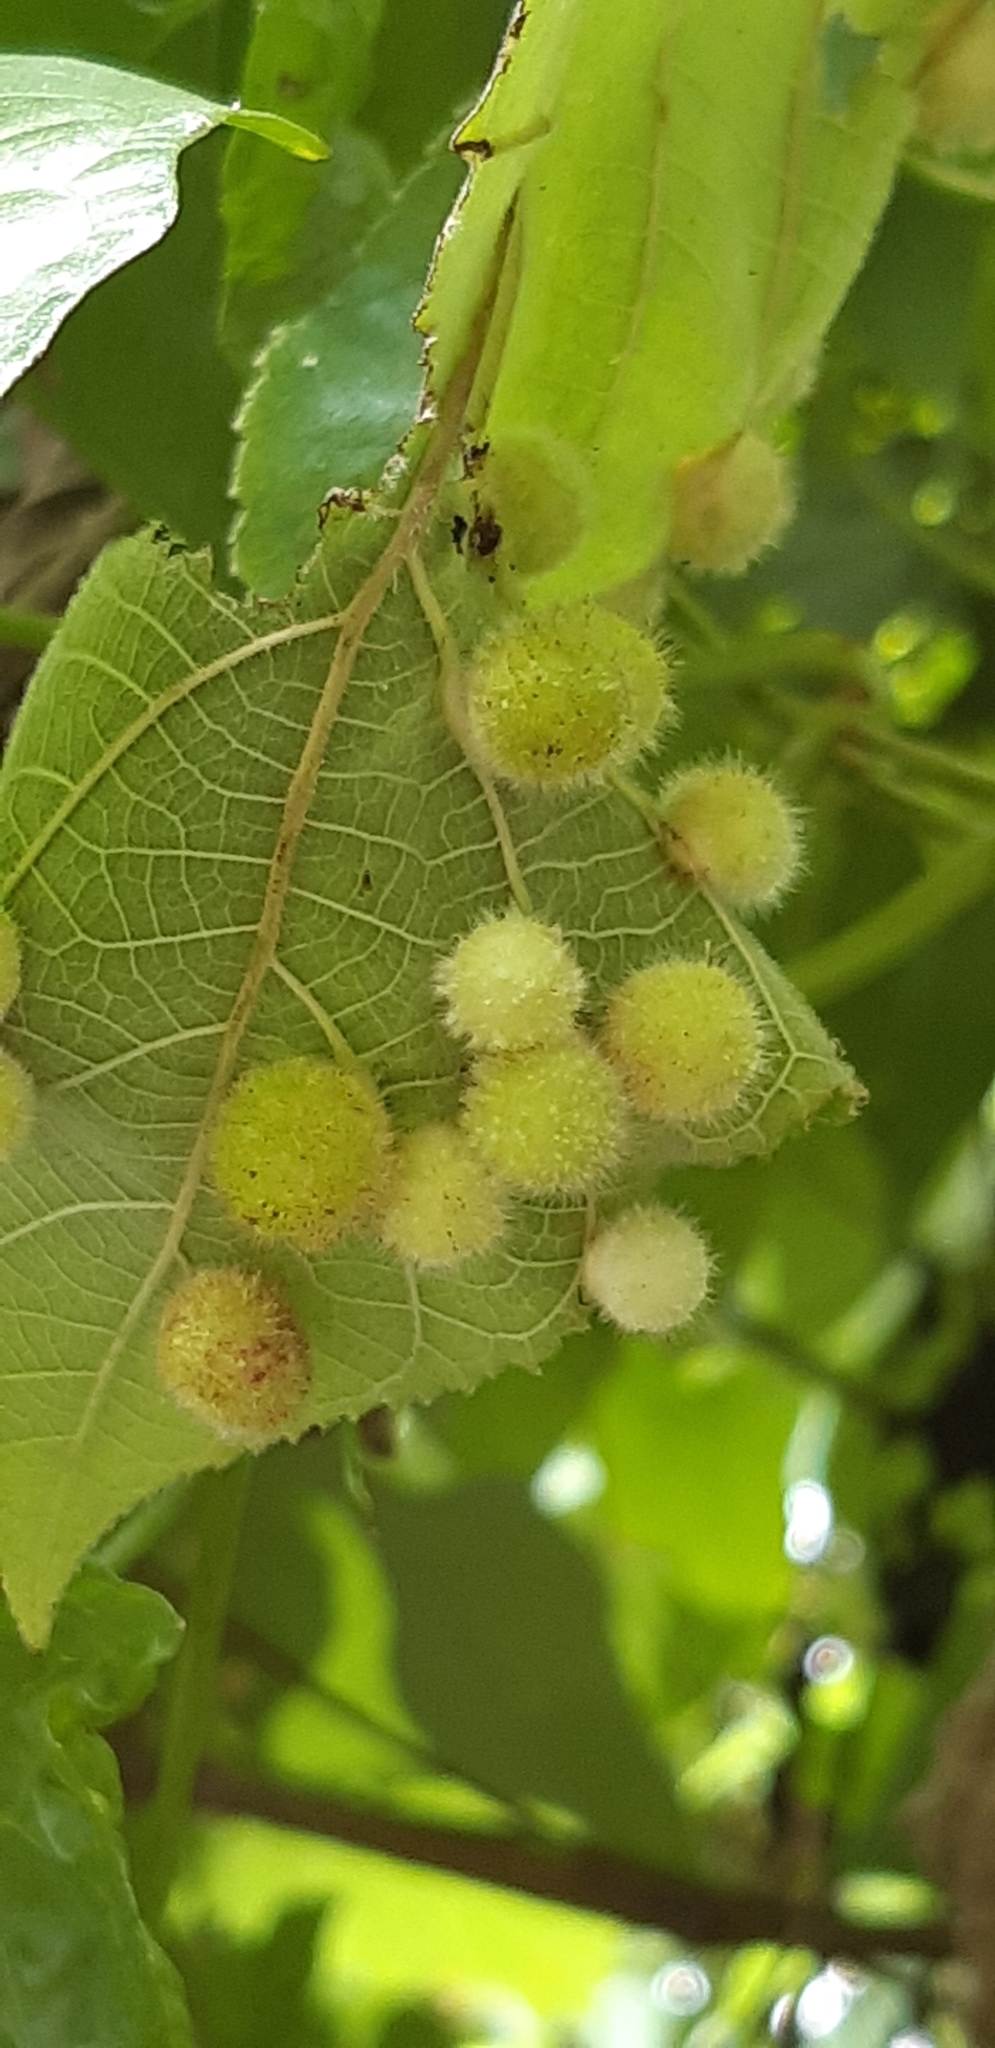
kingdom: Animalia
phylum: Arthropoda
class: Insecta
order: Diptera
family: Cecidomyiidae
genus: Schizomyia
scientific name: Schizomyia broussonetiae
